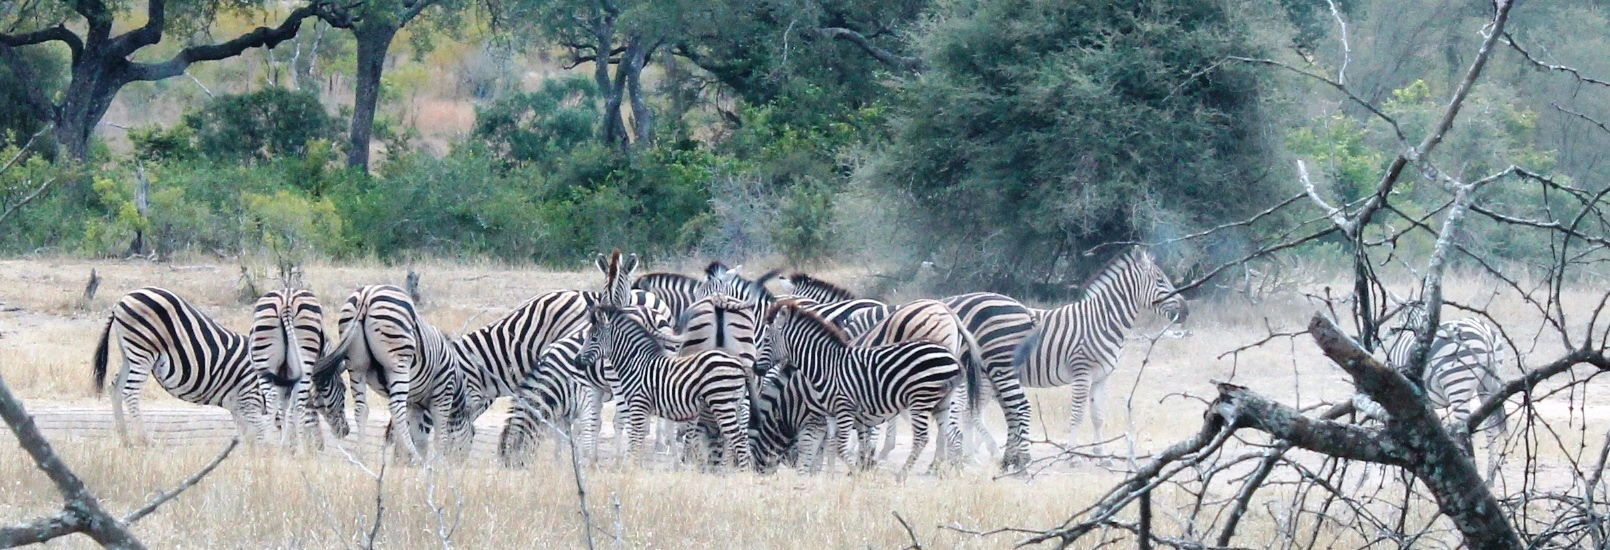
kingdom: Animalia
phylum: Chordata
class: Mammalia
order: Perissodactyla
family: Equidae
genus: Equus
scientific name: Equus quagga
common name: Plains zebra
